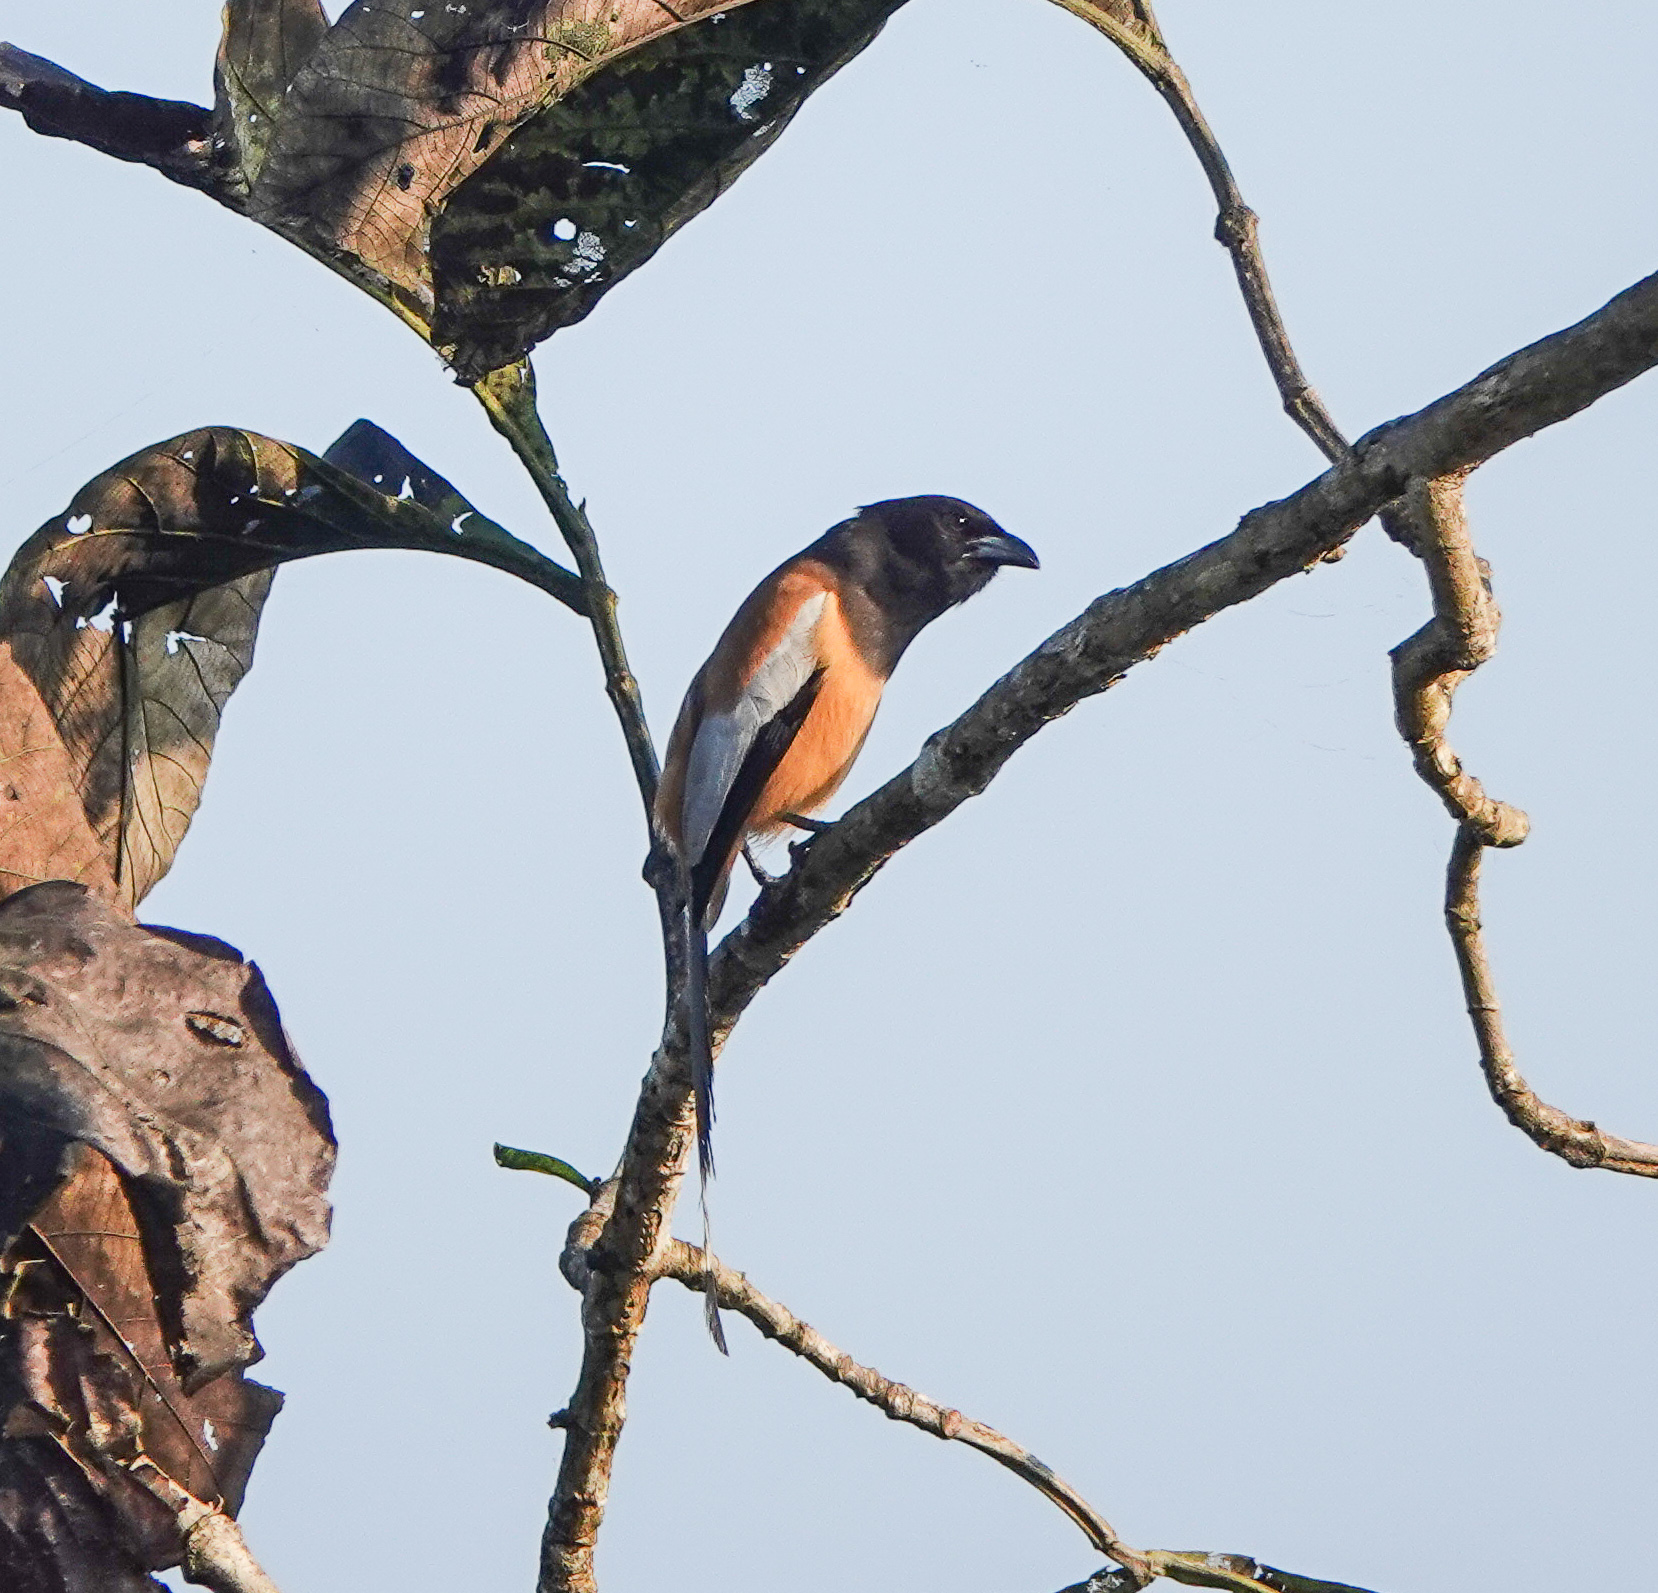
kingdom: Animalia
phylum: Chordata
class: Aves
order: Passeriformes
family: Corvidae
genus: Dendrocitta
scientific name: Dendrocitta vagabunda
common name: Rufous treepie
